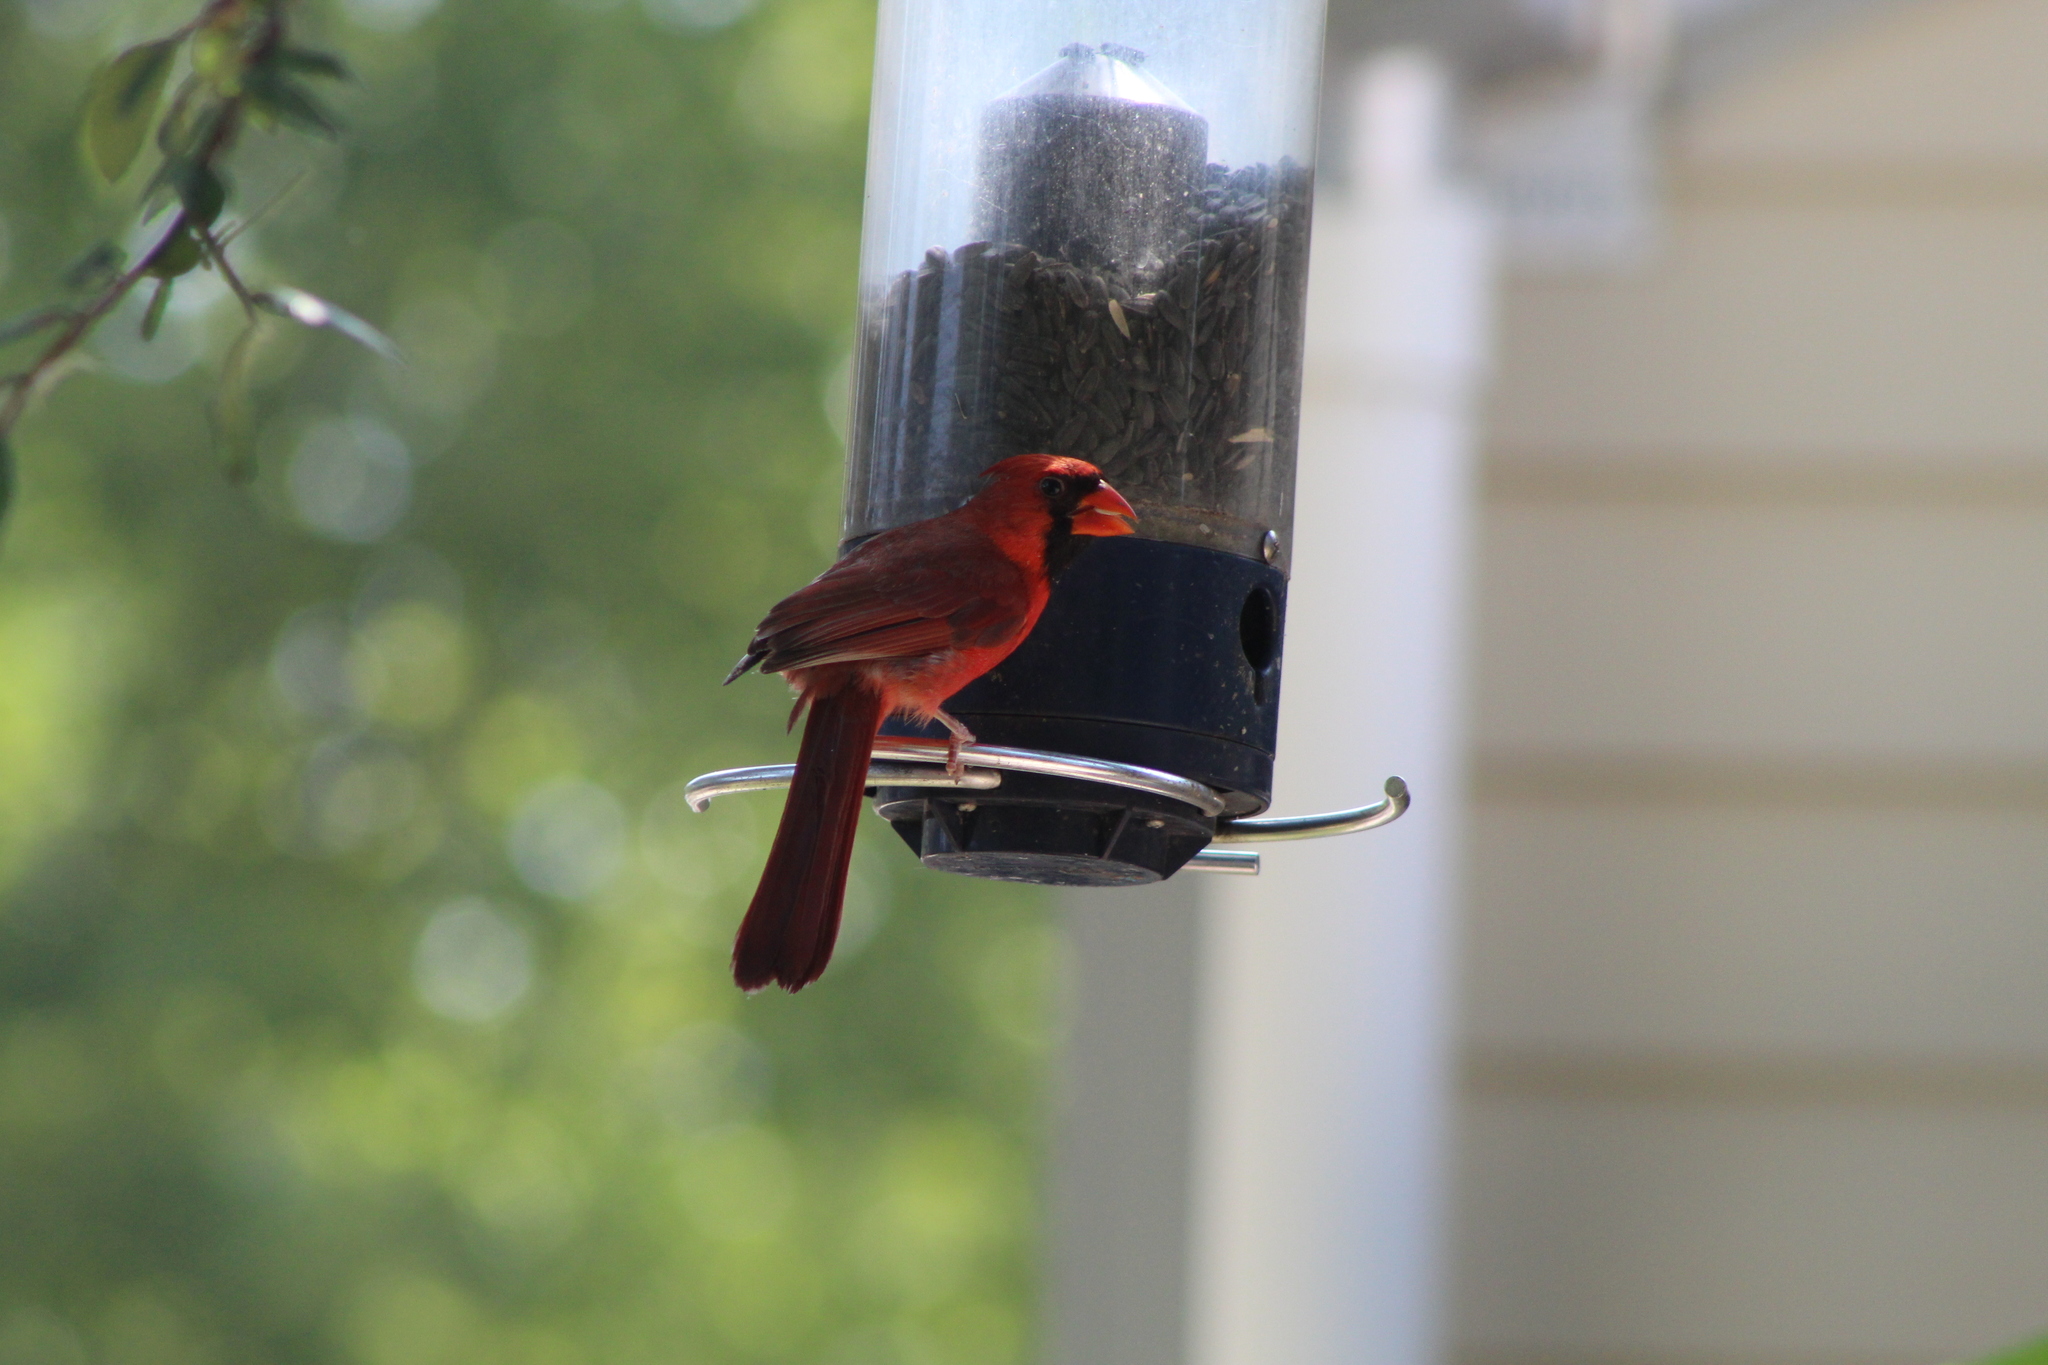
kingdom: Animalia
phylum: Chordata
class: Aves
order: Passeriformes
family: Cardinalidae
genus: Cardinalis
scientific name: Cardinalis cardinalis
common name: Northern cardinal
